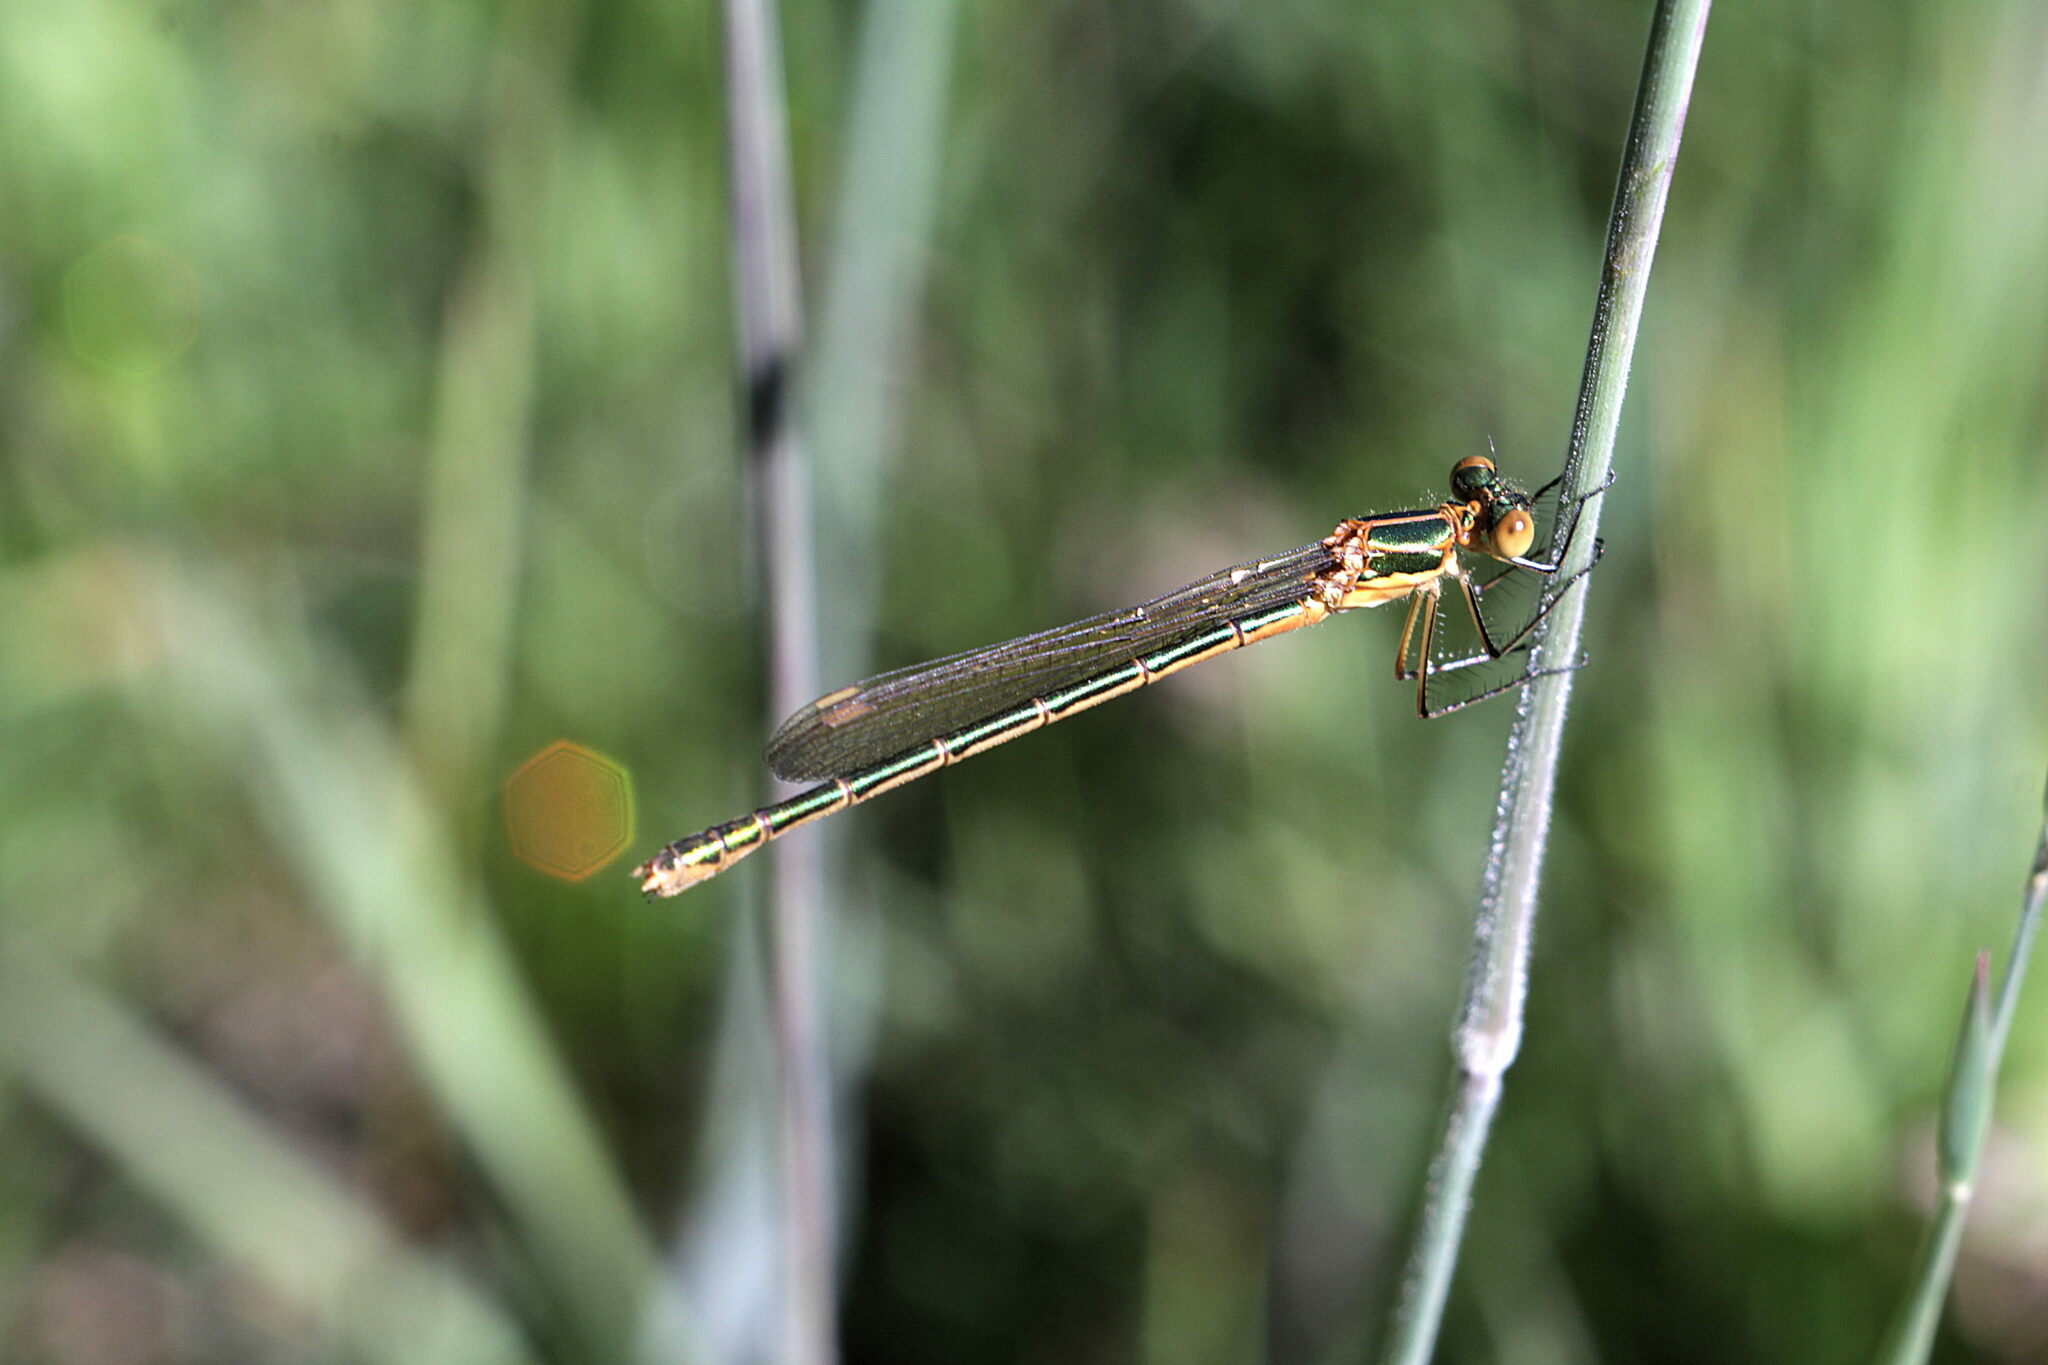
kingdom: Animalia
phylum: Arthropoda
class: Insecta
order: Odonata
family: Lestidae
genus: Lestes
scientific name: Lestes sponsa
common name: Common spreadwing
